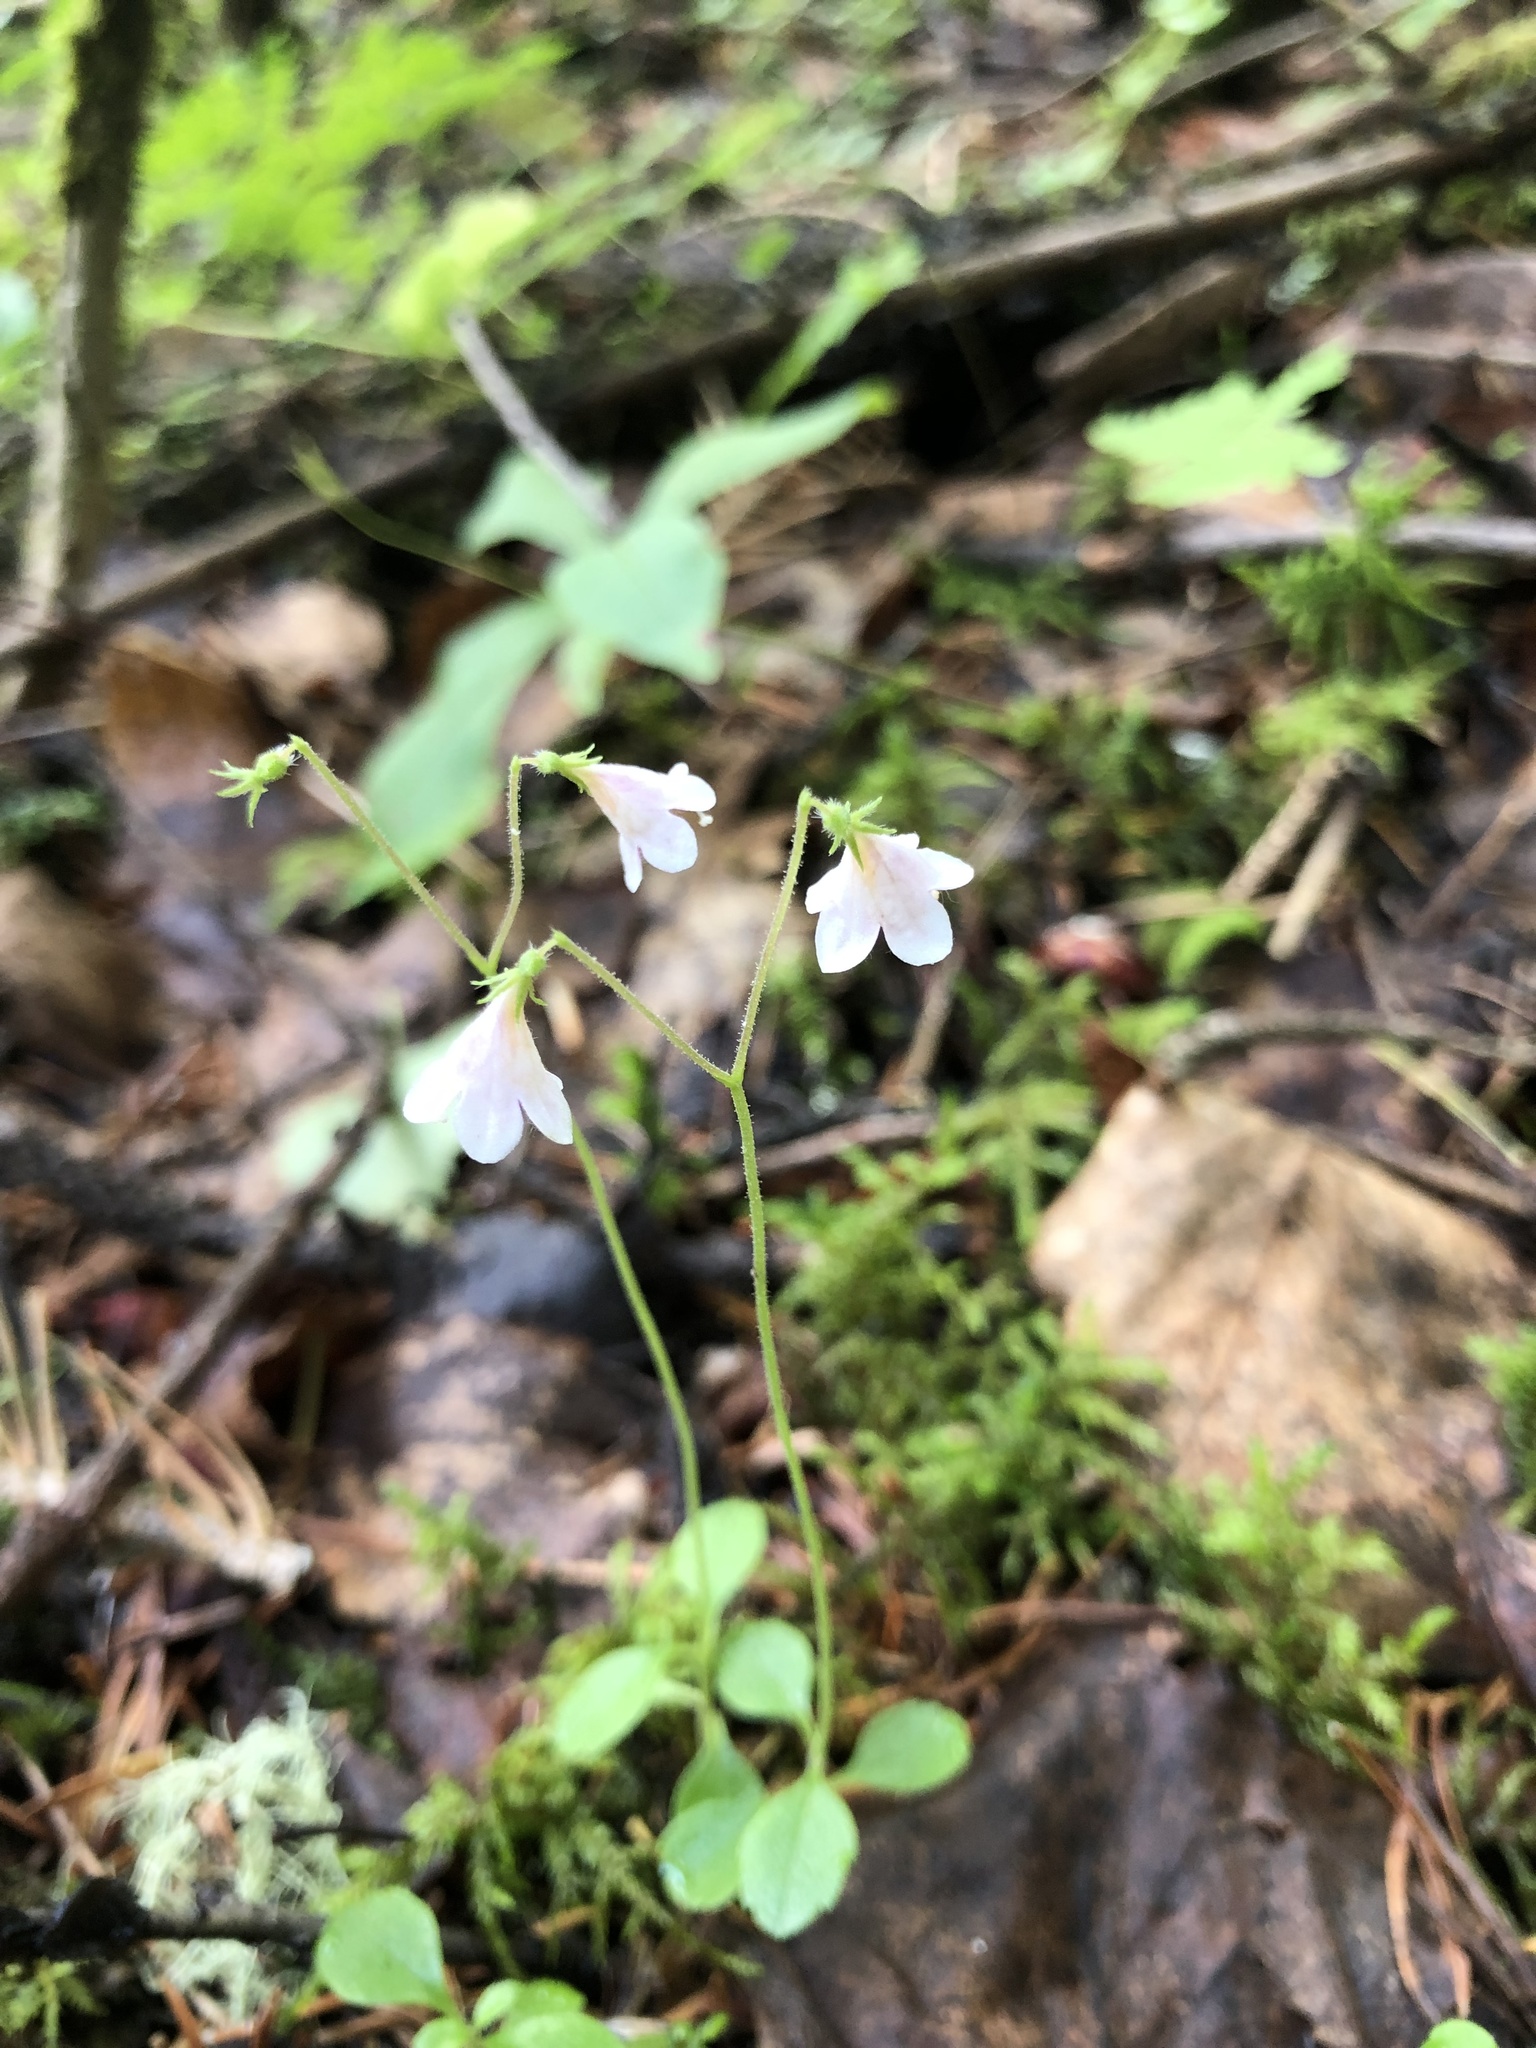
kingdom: Plantae
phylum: Tracheophyta
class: Magnoliopsida
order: Dipsacales
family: Caprifoliaceae
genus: Linnaea
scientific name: Linnaea borealis
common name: Twinflower
